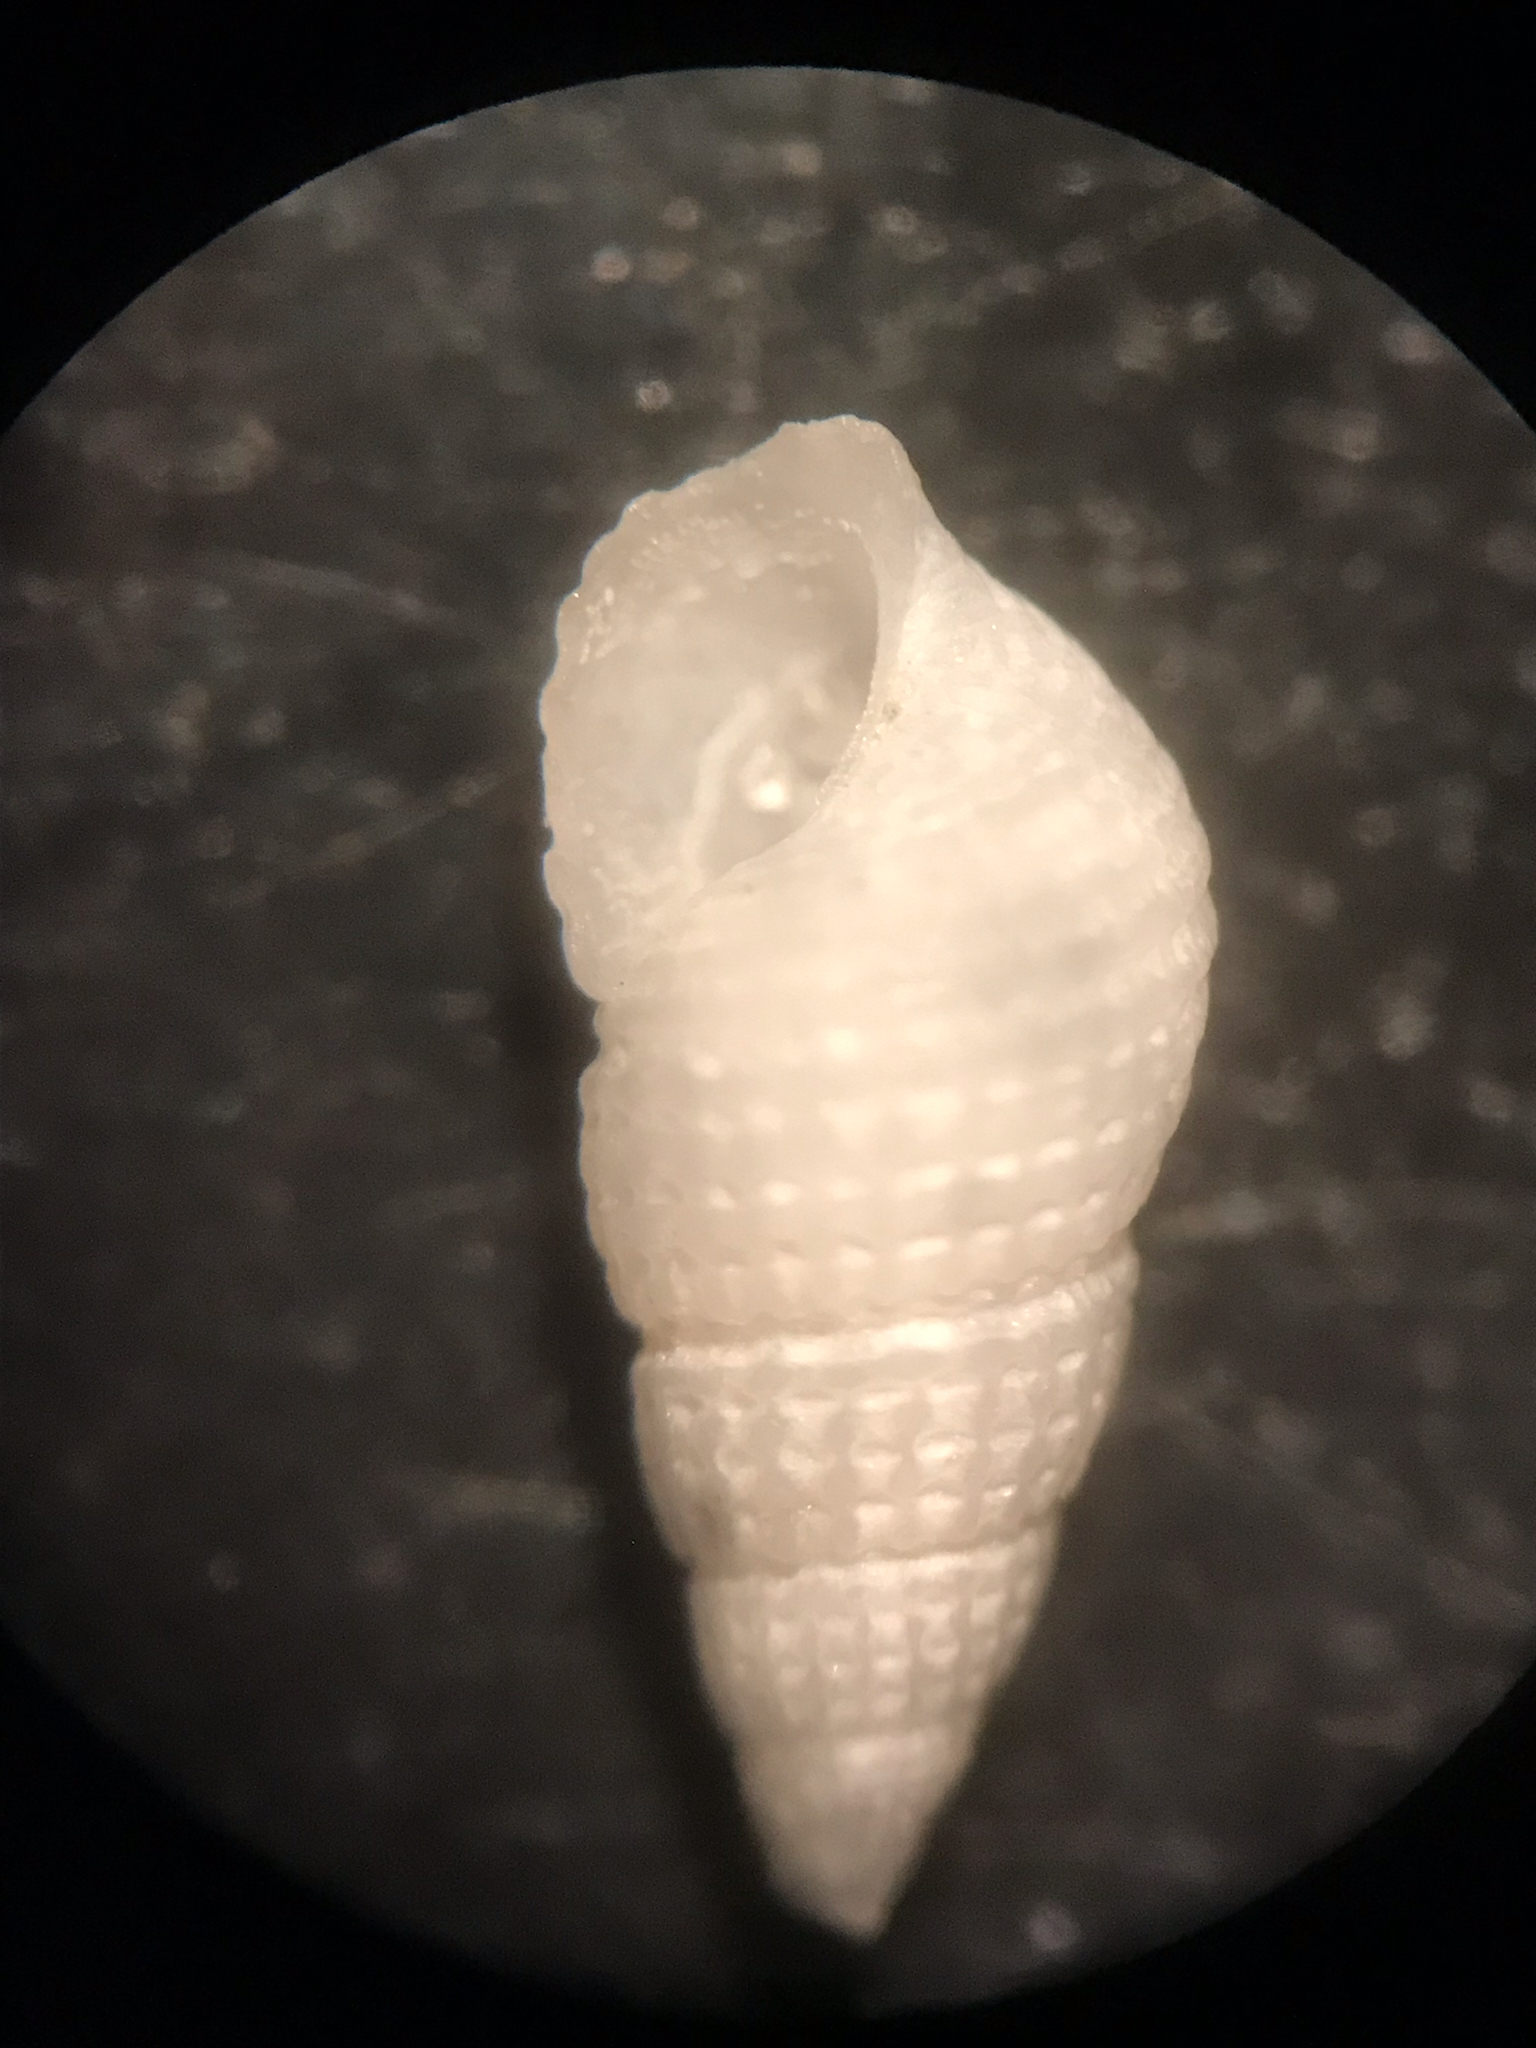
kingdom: Animalia
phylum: Mollusca
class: Gastropoda
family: Pyramidellidae
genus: Boonea
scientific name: Boonea seminuda
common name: Half-smooth odostome
